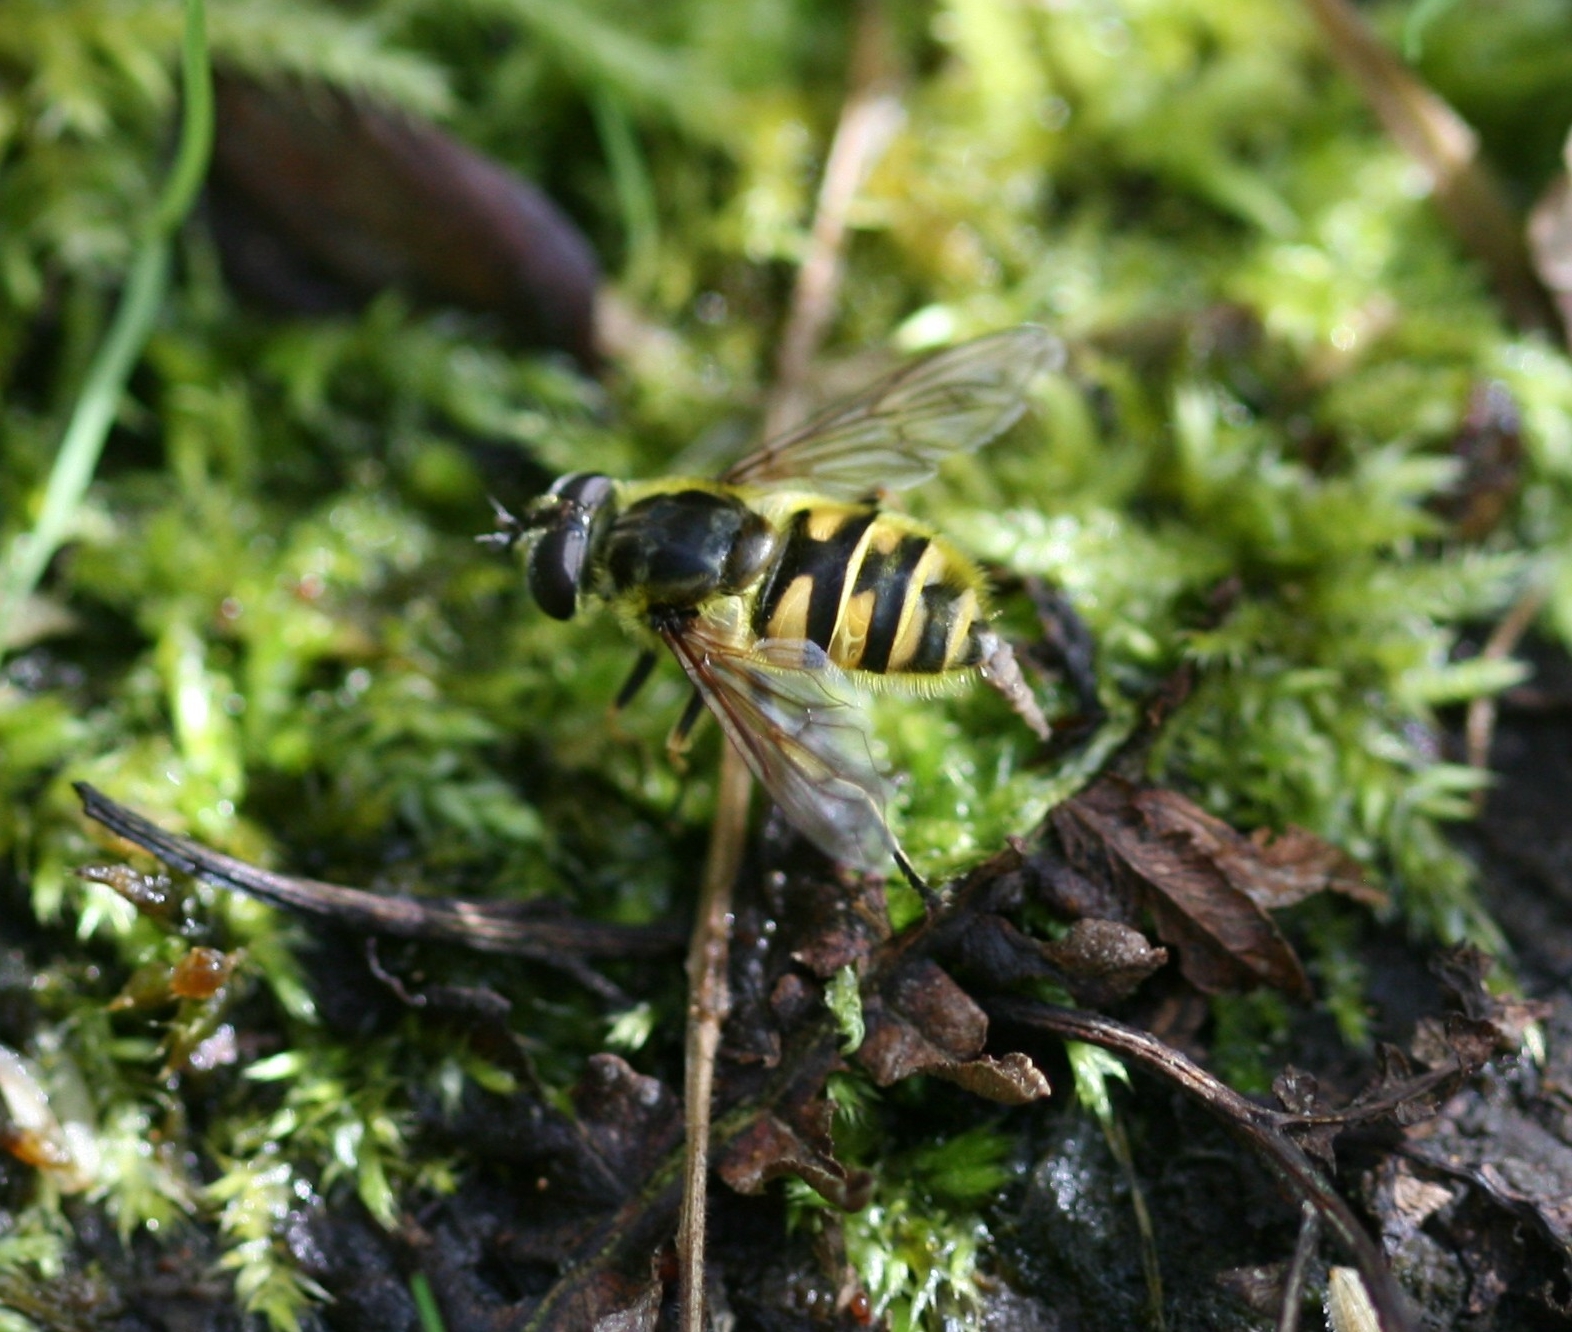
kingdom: Animalia
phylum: Arthropoda
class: Insecta
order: Diptera
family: Syrphidae
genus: Myathropa
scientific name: Myathropa florea
